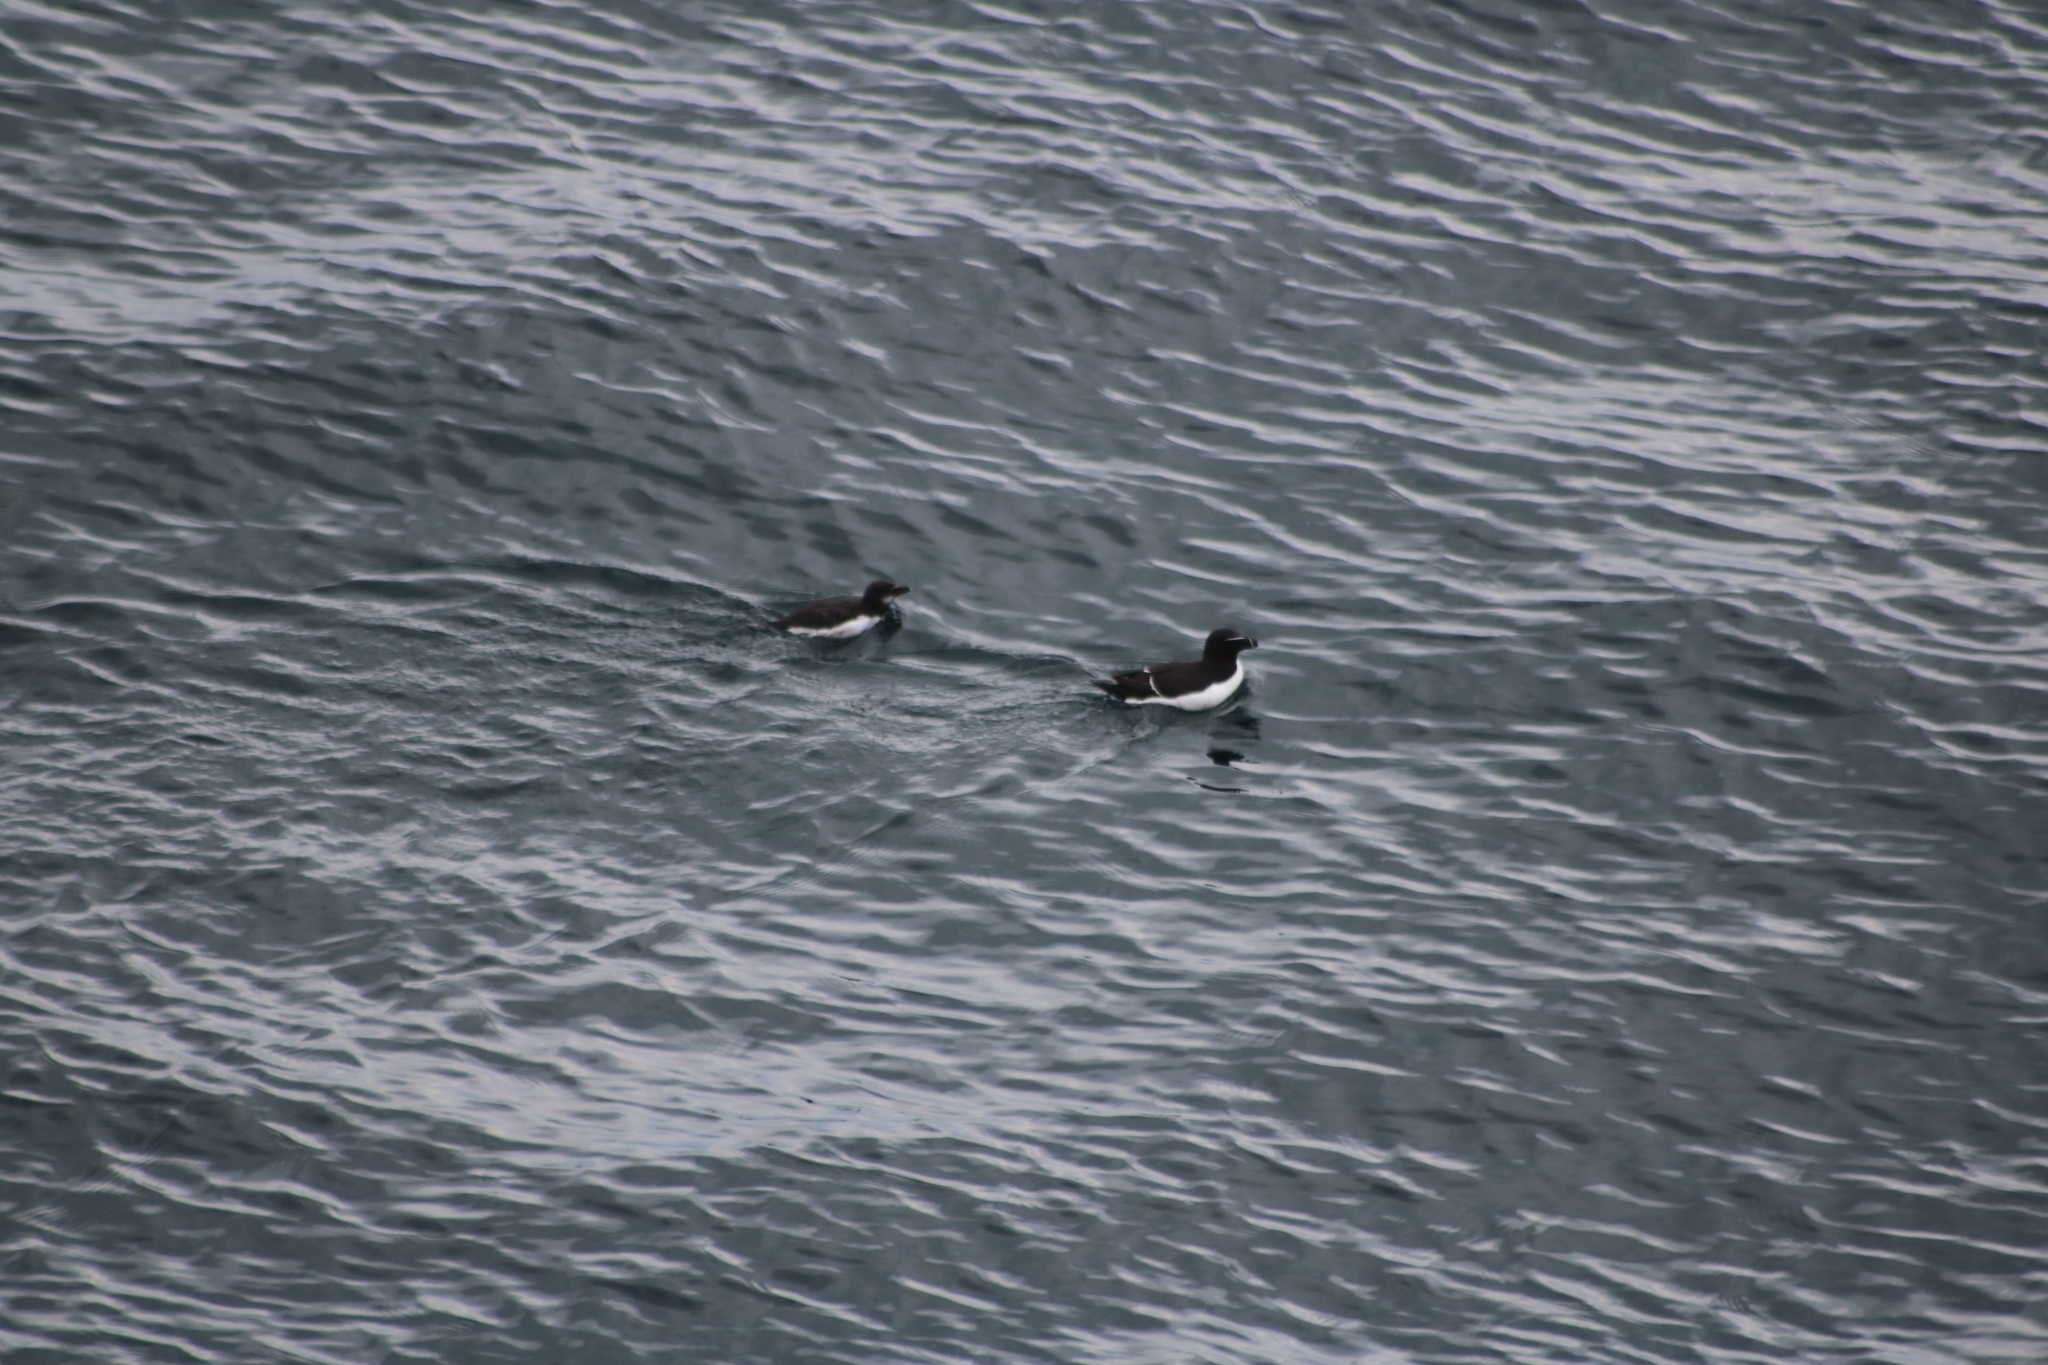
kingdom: Animalia
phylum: Chordata
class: Aves
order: Charadriiformes
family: Alcidae
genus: Alca
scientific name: Alca torda
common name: Razorbill
